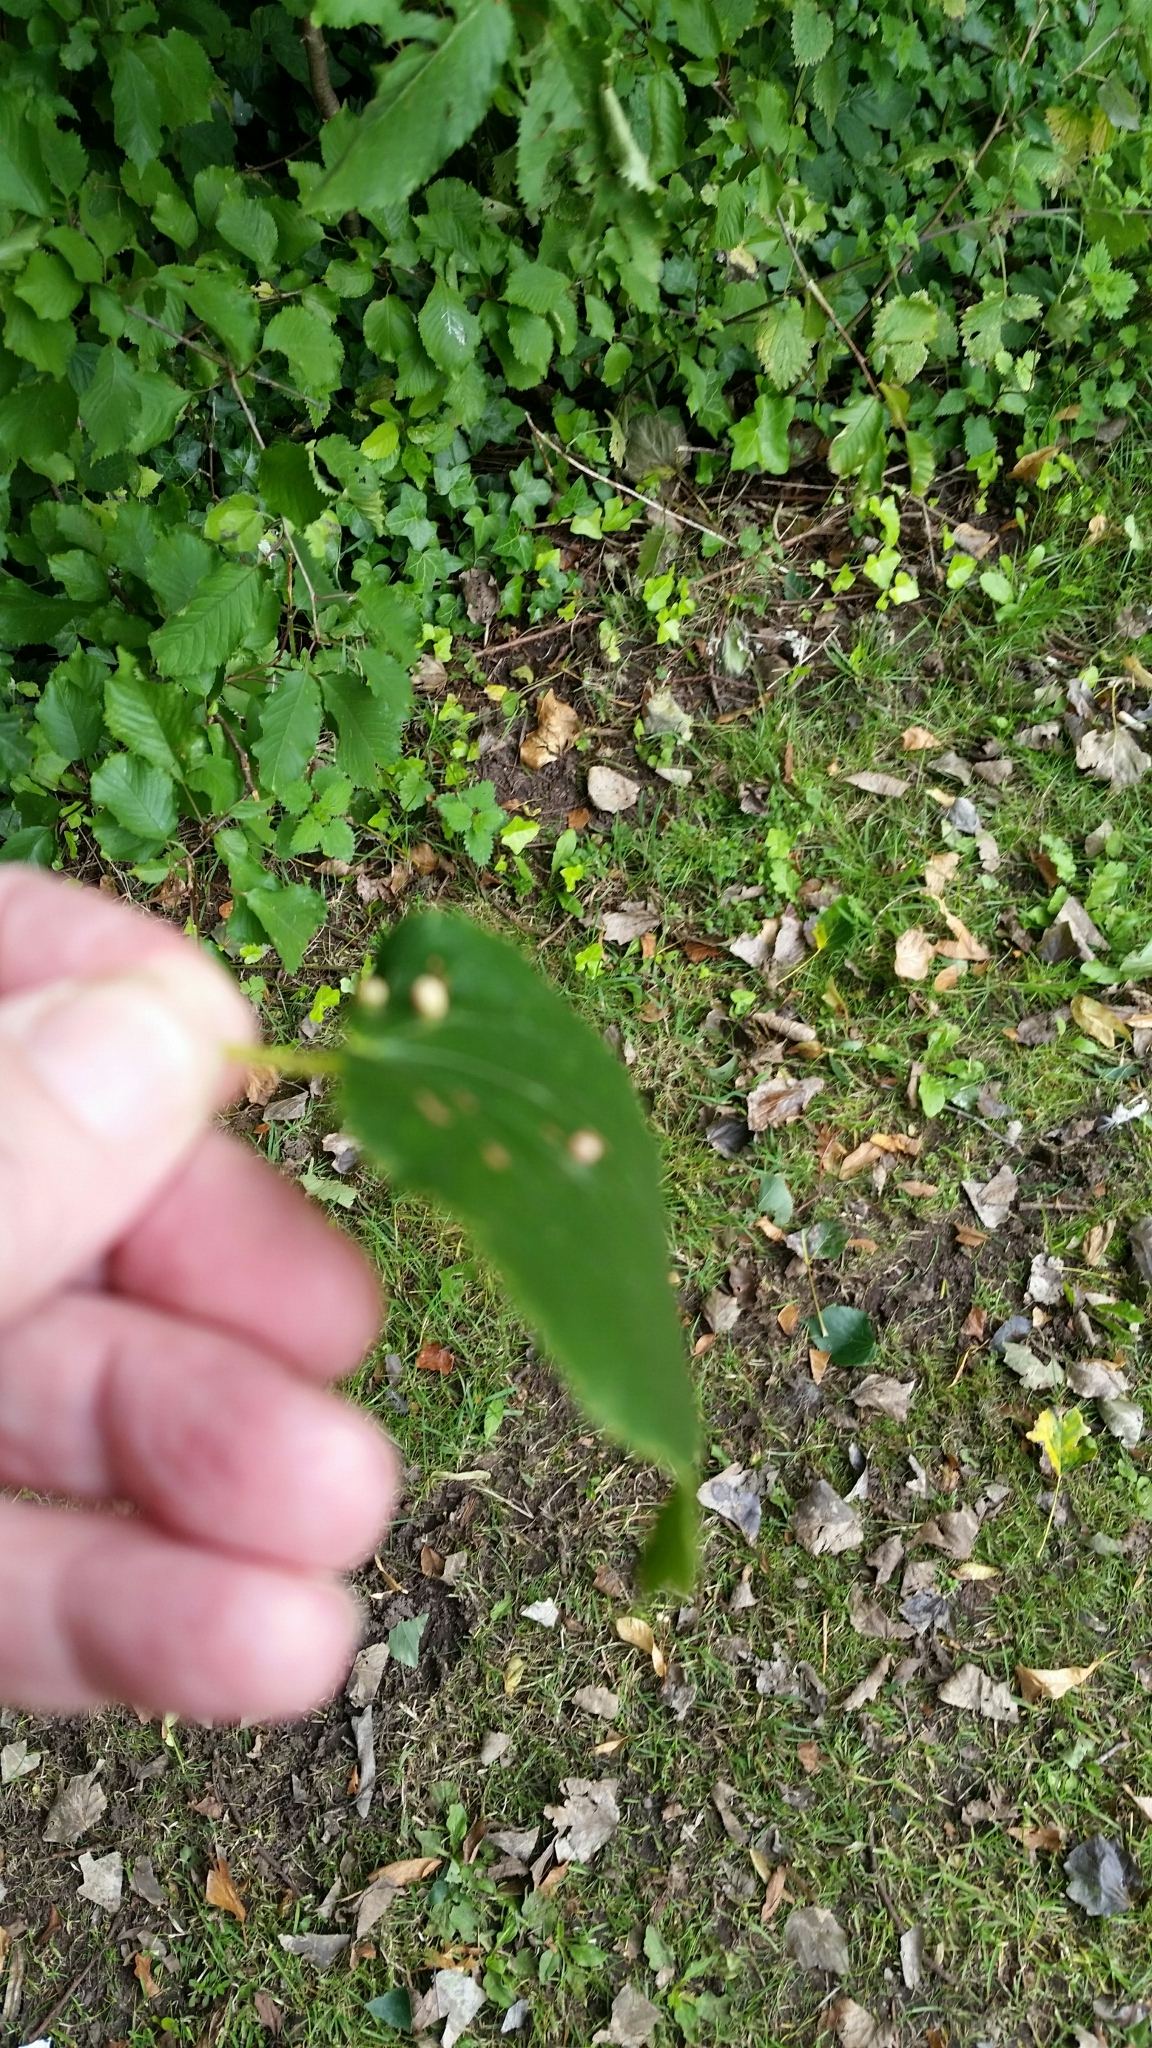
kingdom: Animalia
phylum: Arthropoda
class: Arachnida
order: Trombidiformes
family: Eriophyidae
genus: Eriophyes
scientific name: Eriophyes exilis
